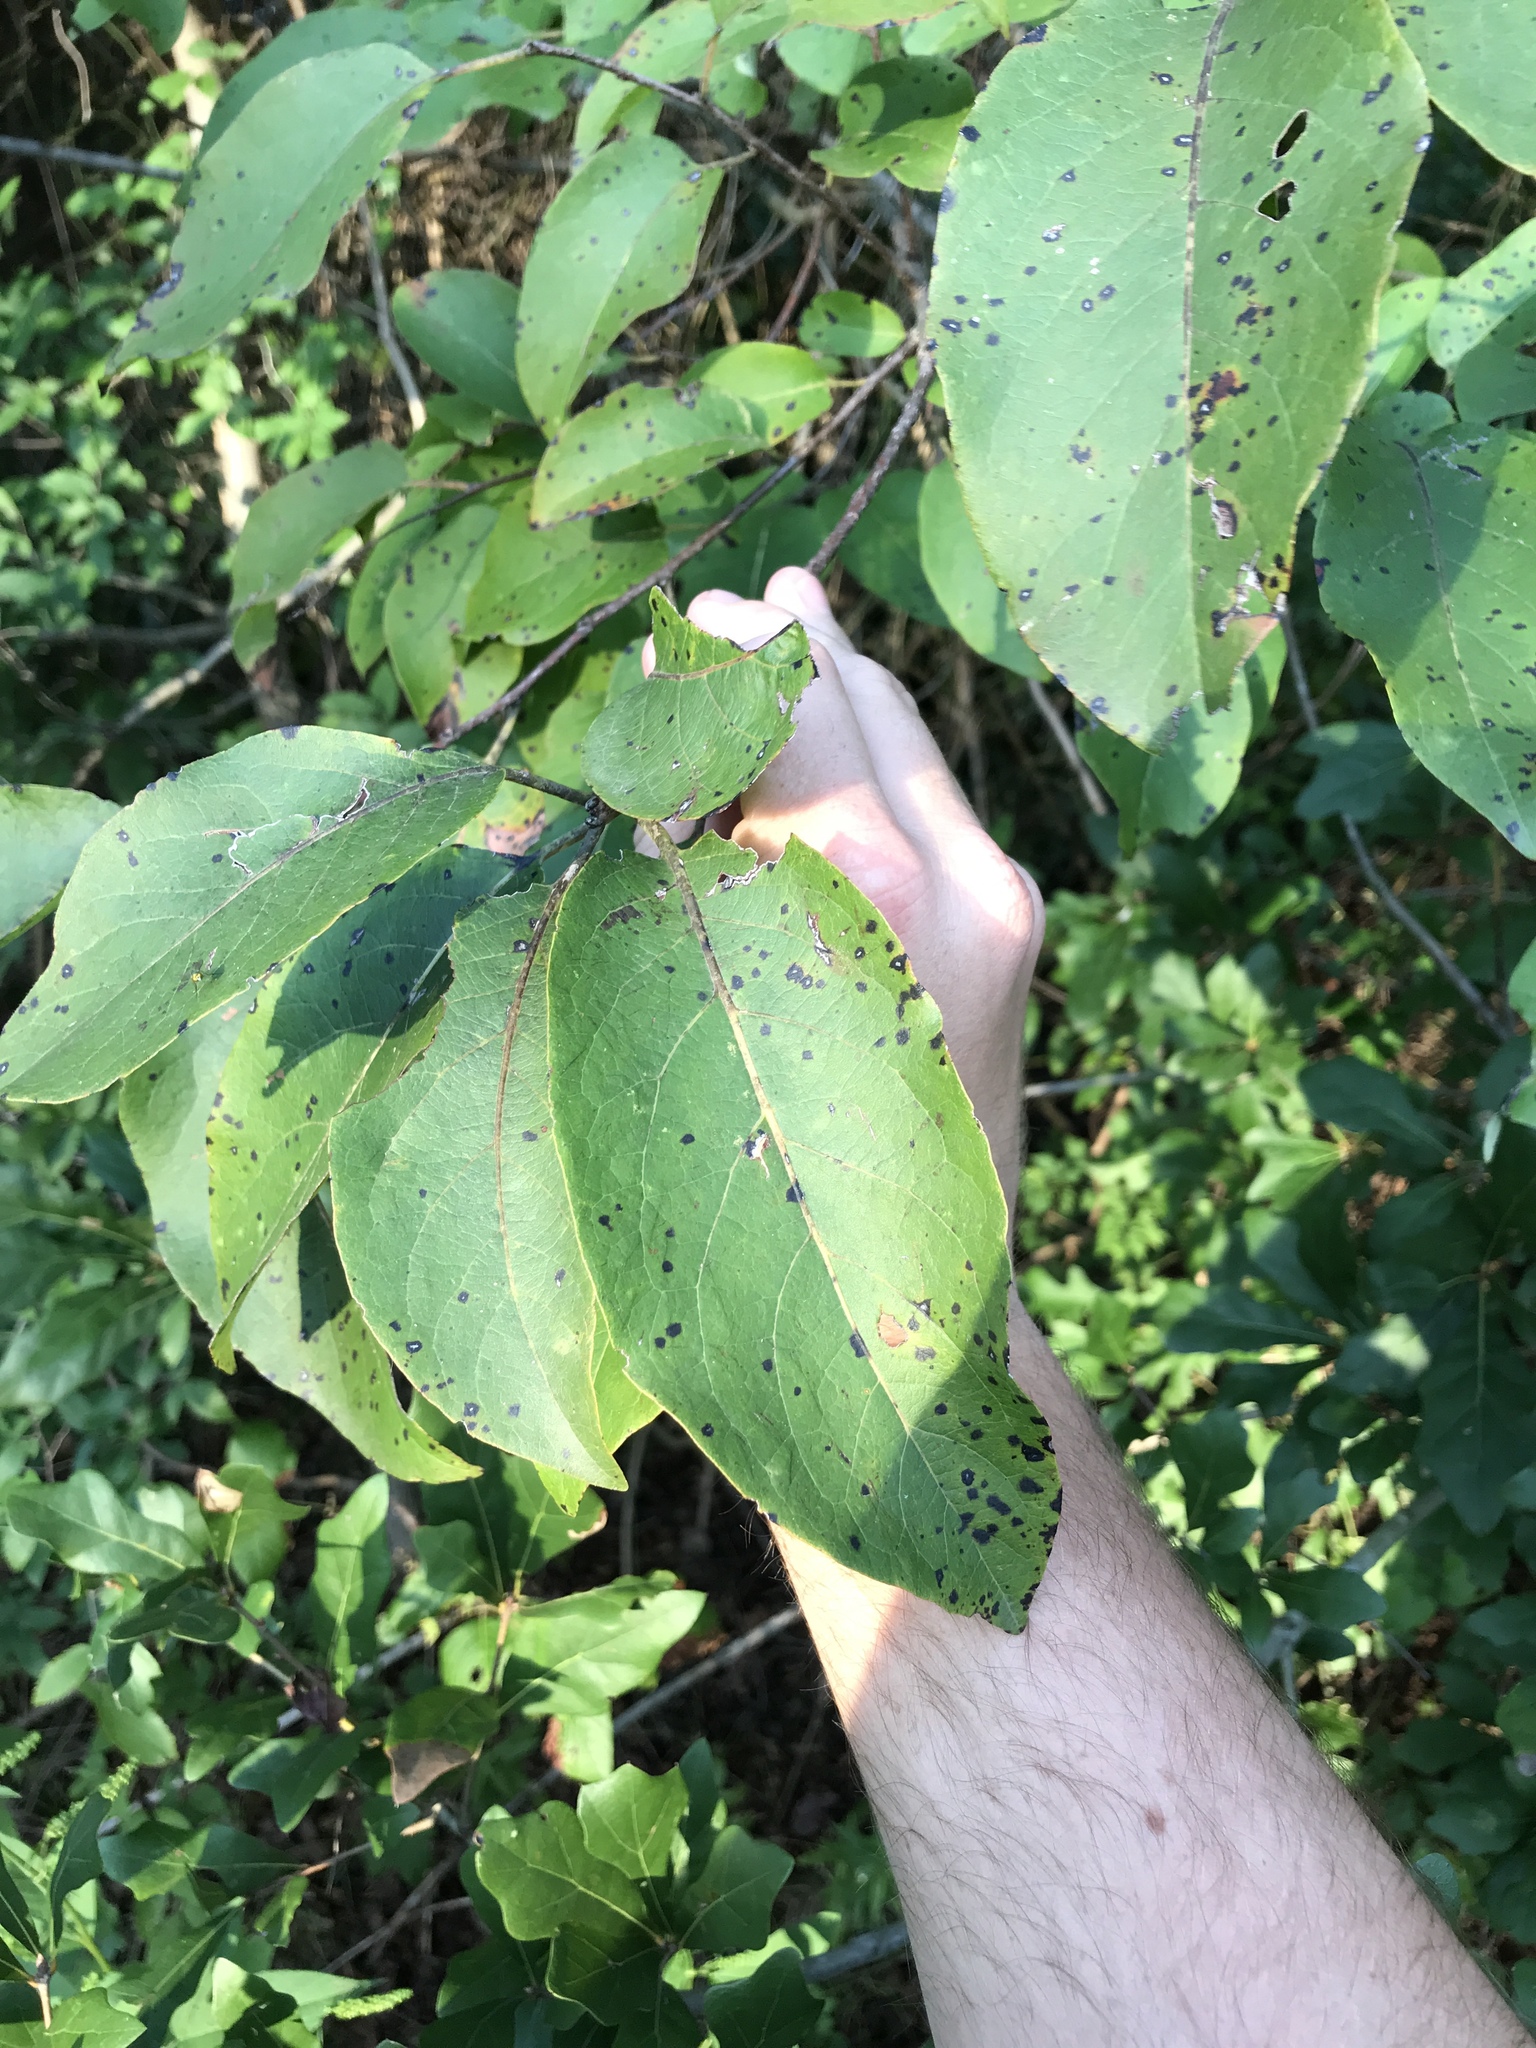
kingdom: Plantae
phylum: Tracheophyta
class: Magnoliopsida
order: Ericales
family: Ebenaceae
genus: Diospyros
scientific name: Diospyros virginiana
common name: Persimmon
